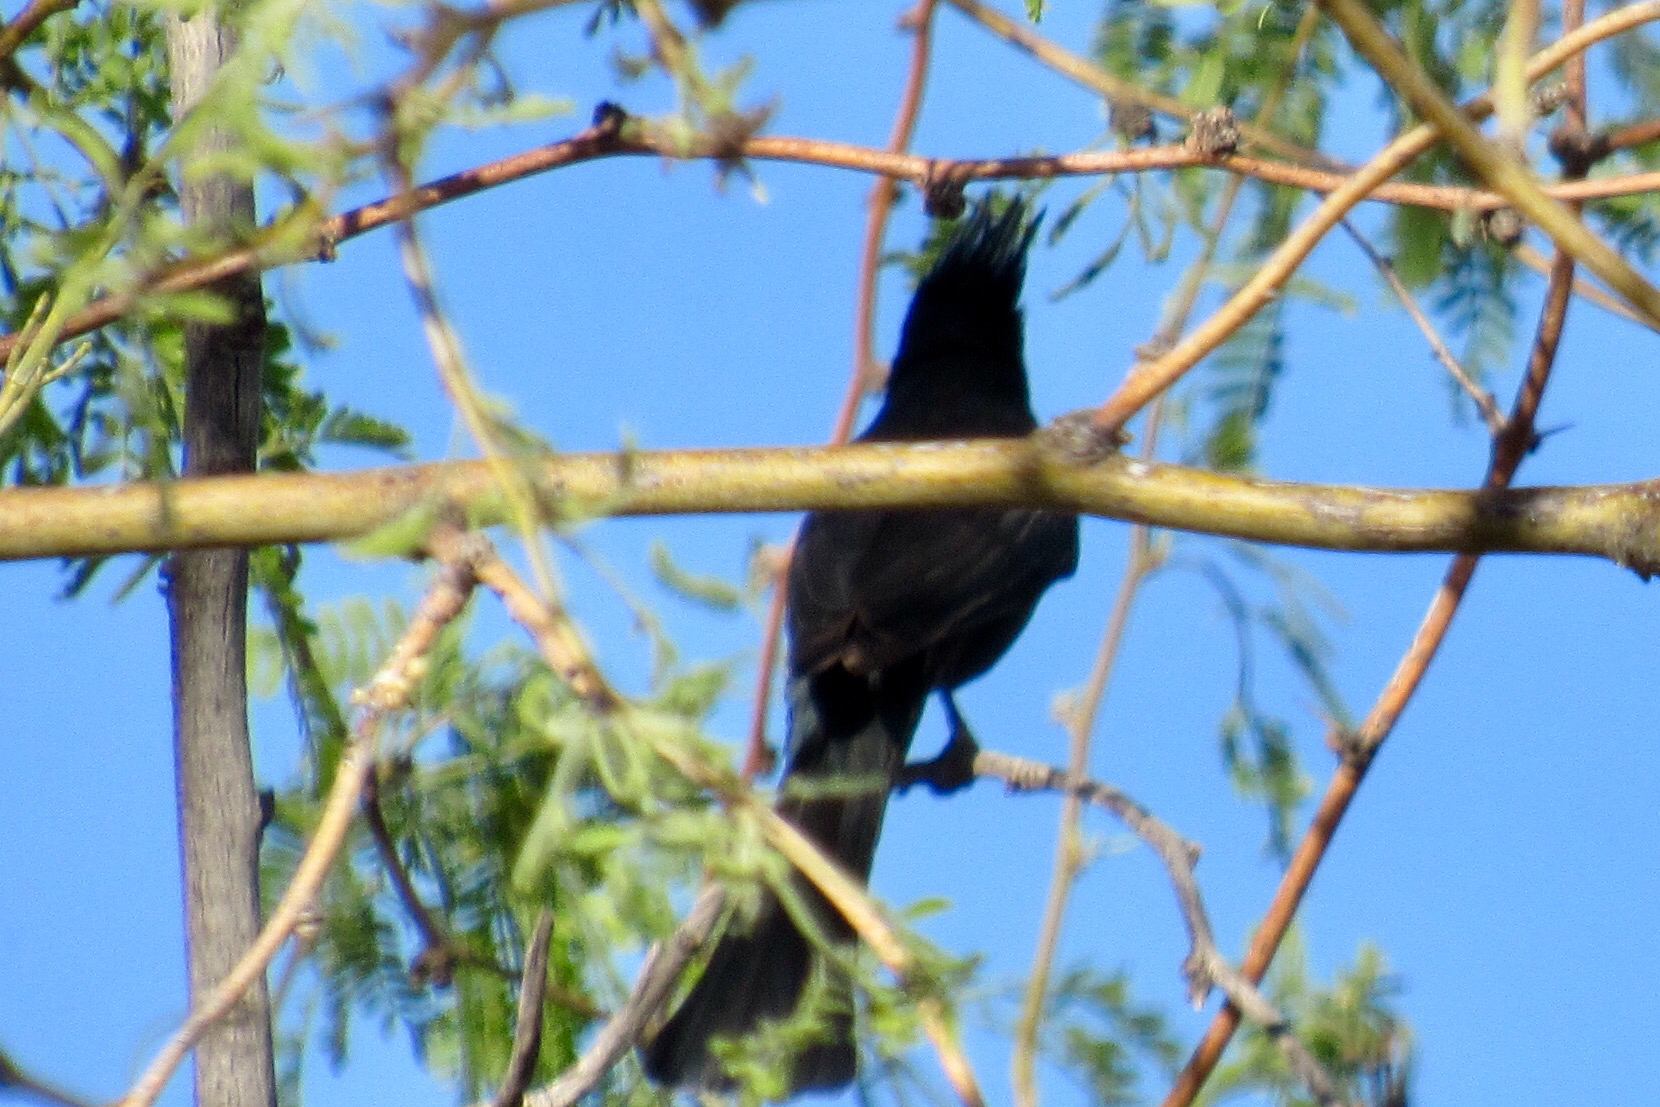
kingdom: Animalia
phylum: Chordata
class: Aves
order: Passeriformes
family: Ptilogonatidae
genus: Phainopepla
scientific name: Phainopepla nitens
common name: Phainopepla
